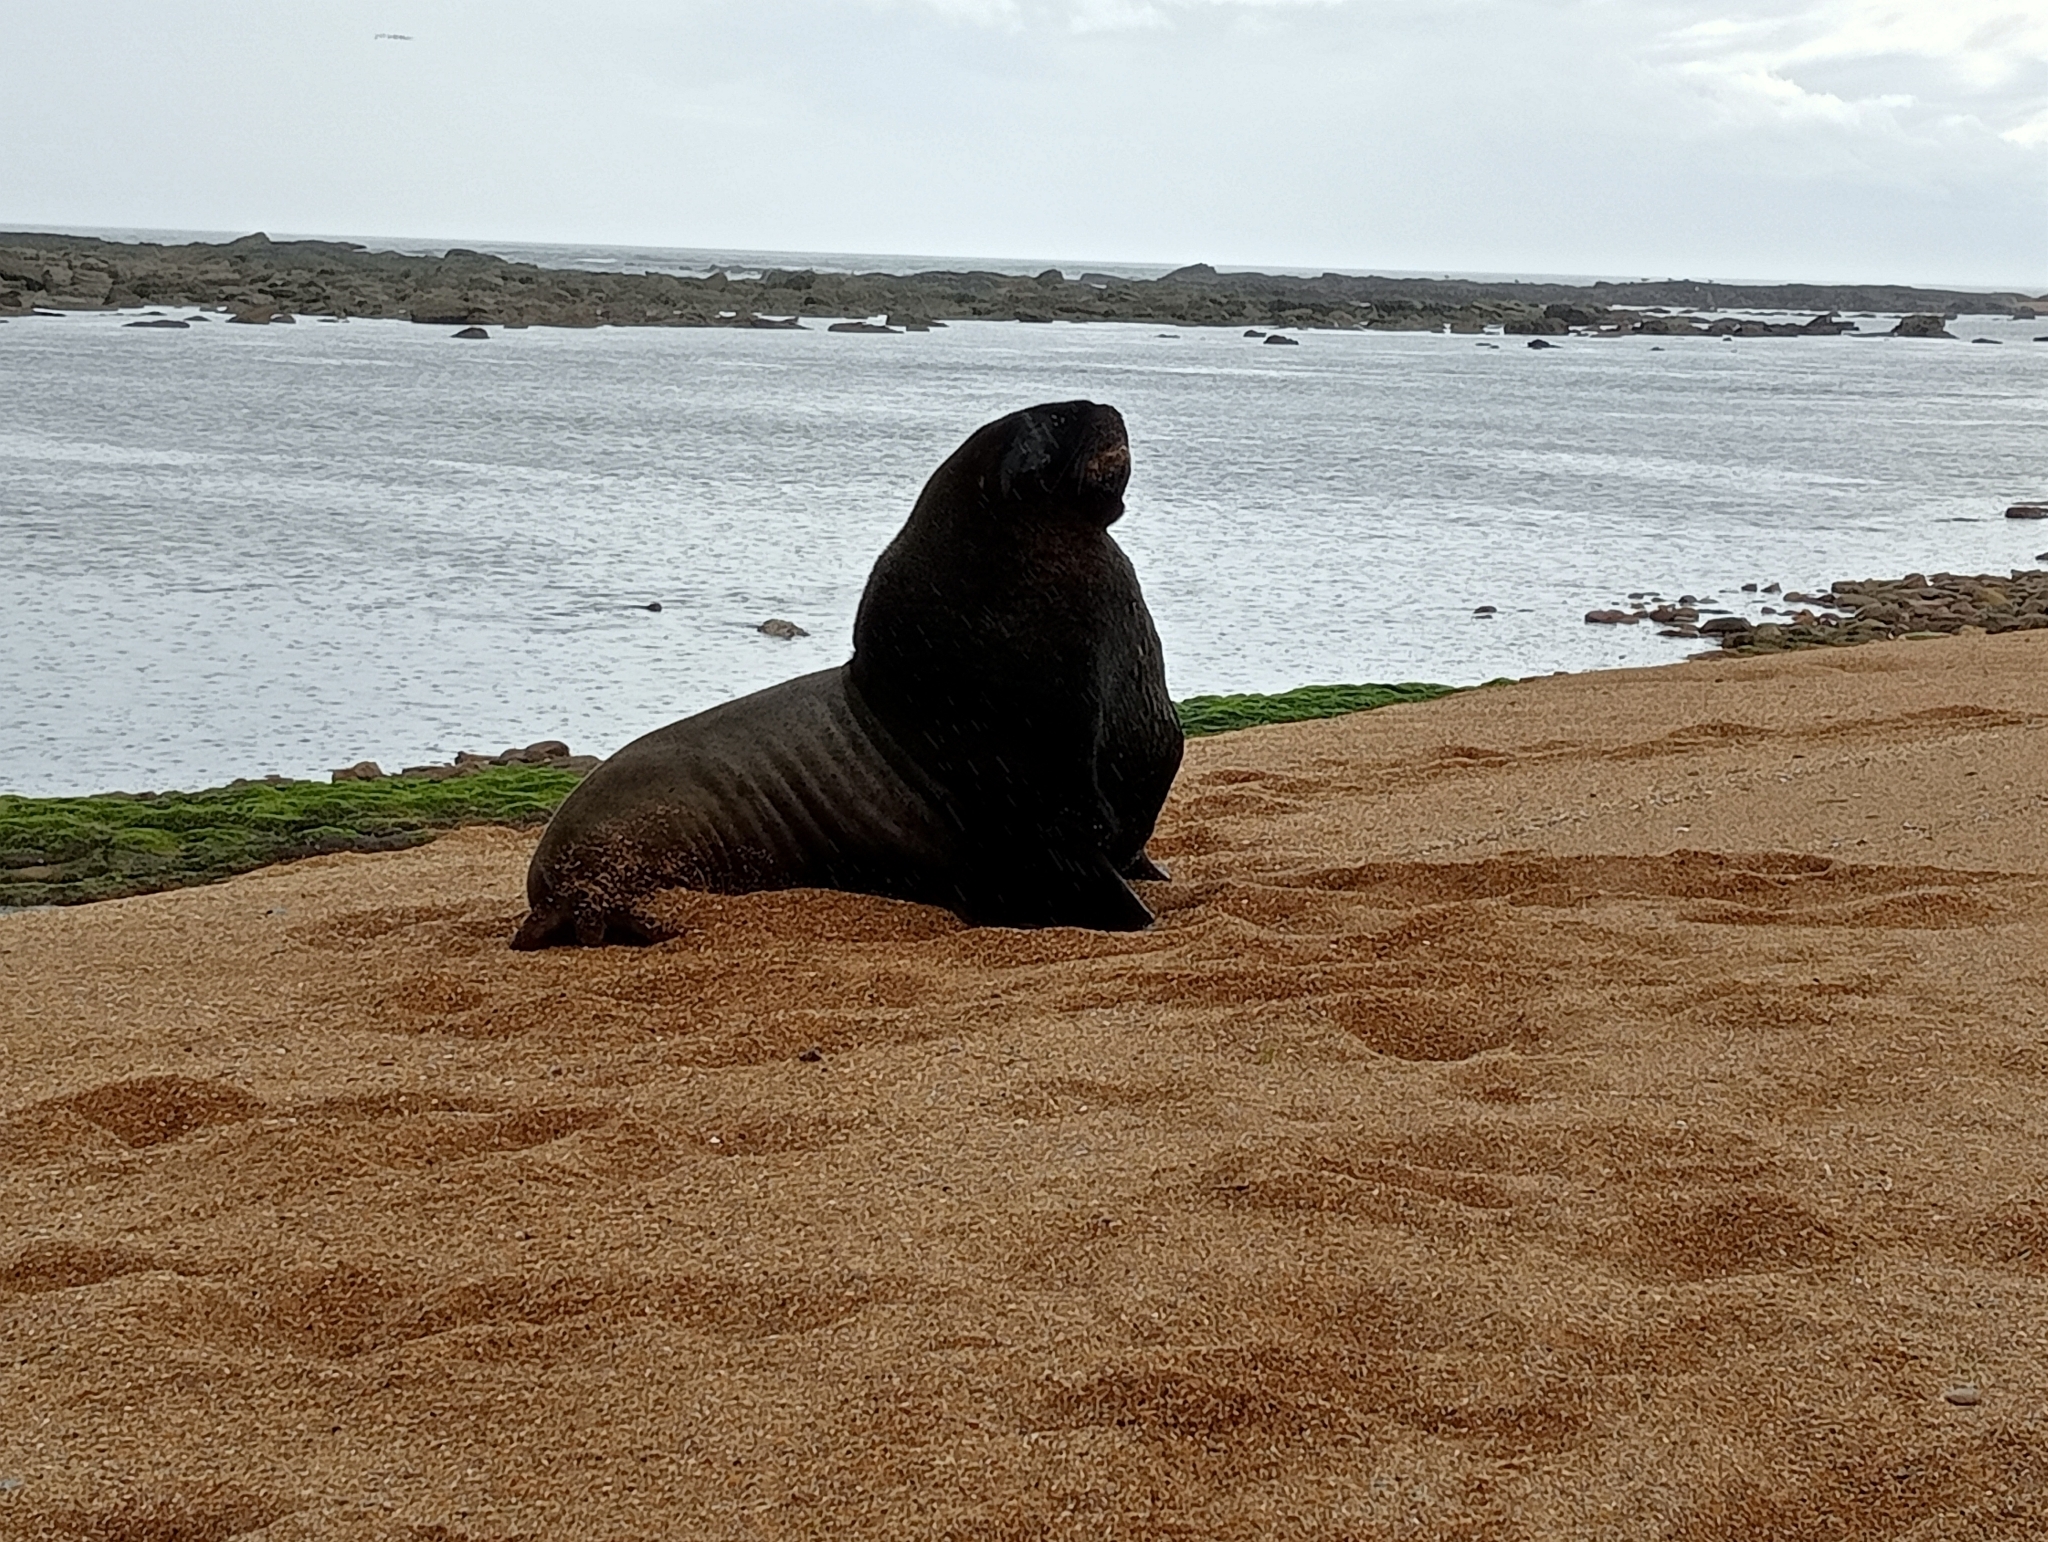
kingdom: Animalia
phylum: Chordata
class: Mammalia
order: Carnivora
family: Otariidae
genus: Phocarctos
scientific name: Phocarctos hookeri
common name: New zealand sea lion
